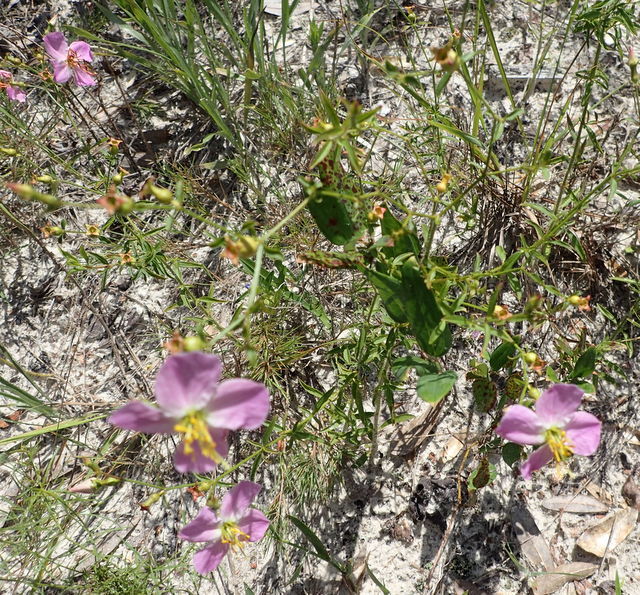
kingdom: Plantae
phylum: Tracheophyta
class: Magnoliopsida
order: Myrtales
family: Melastomataceae
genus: Rhexia
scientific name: Rhexia mariana
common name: Dull meadow-pitcher
